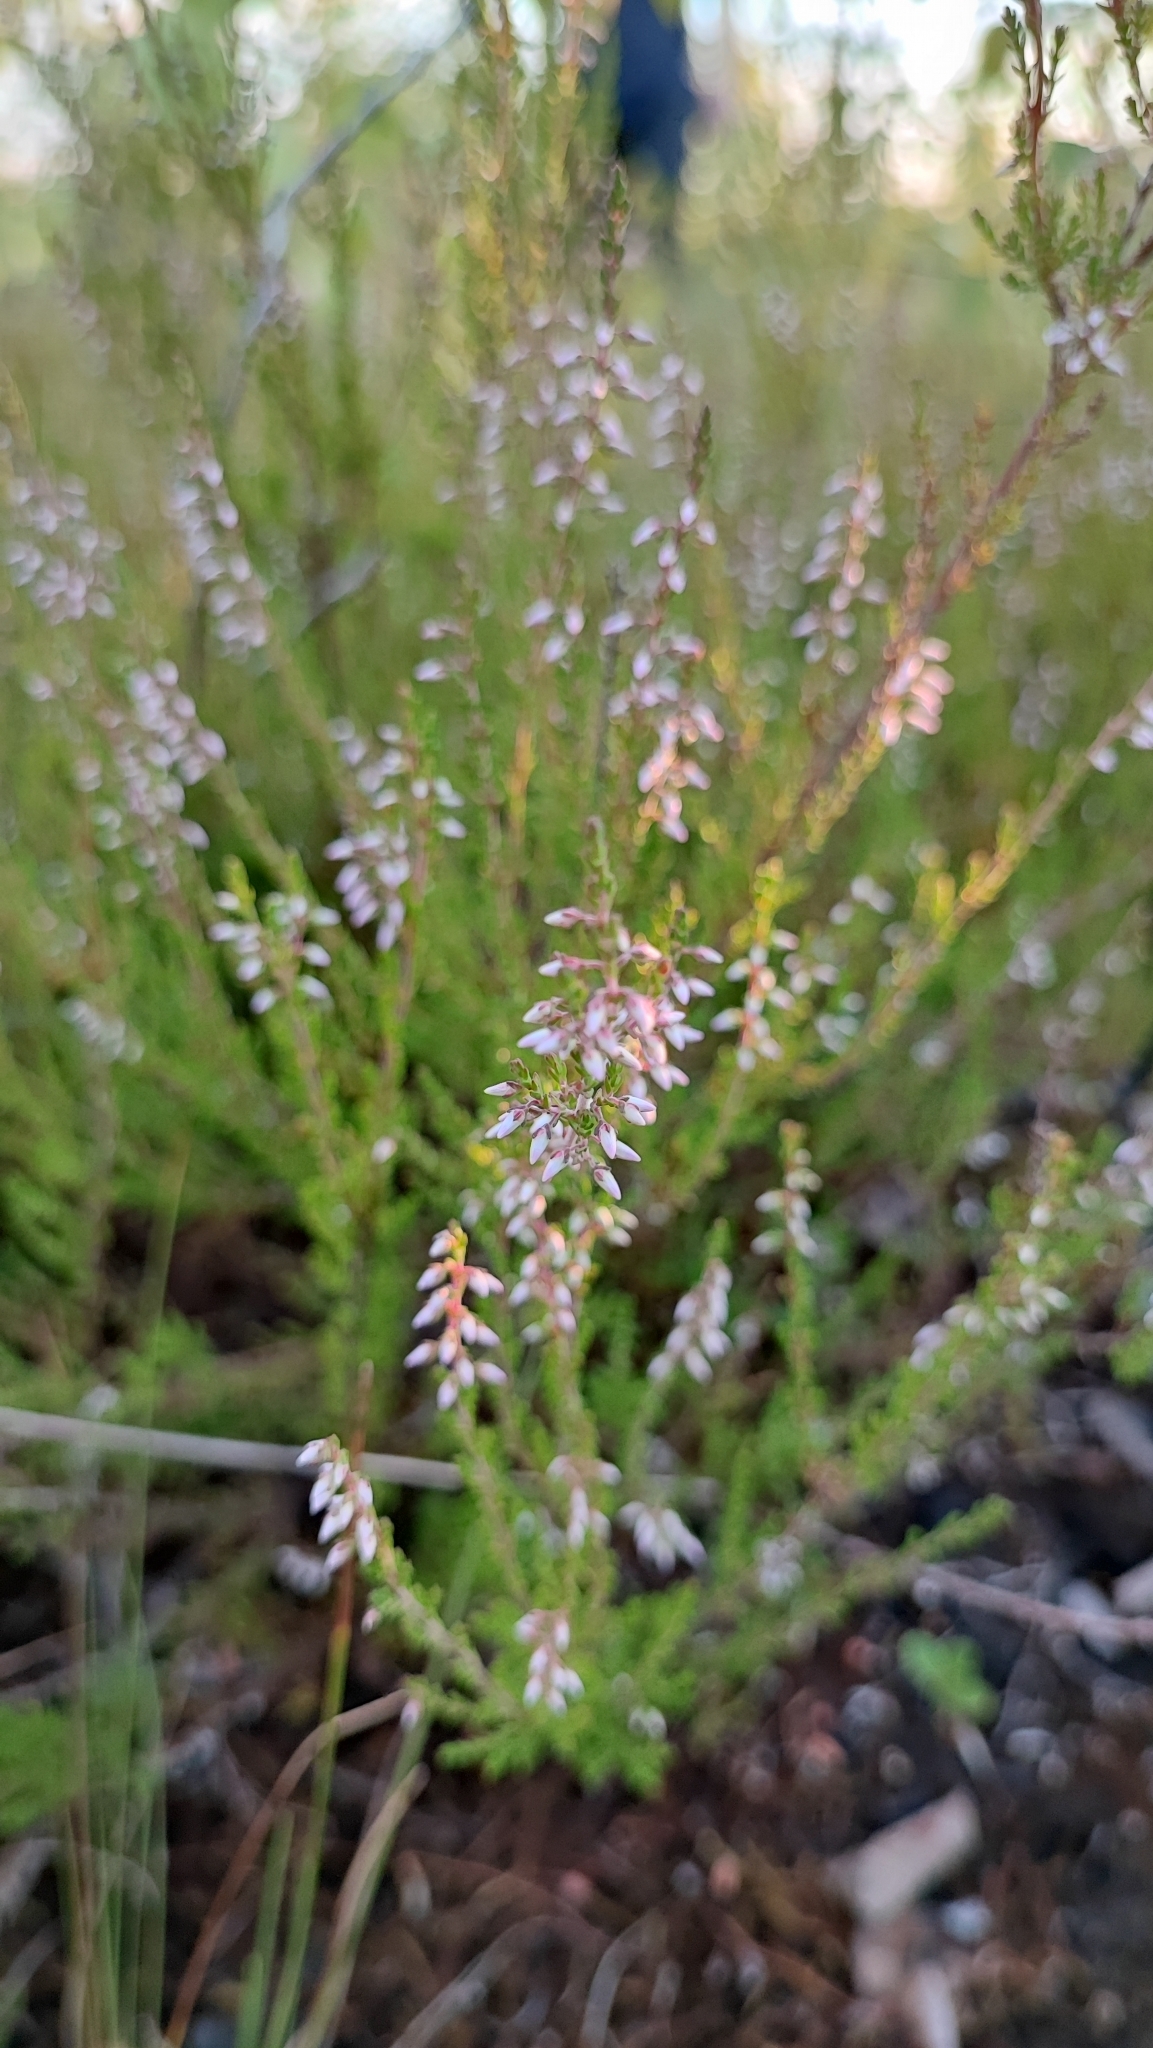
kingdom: Plantae
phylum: Tracheophyta
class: Magnoliopsida
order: Ericales
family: Ericaceae
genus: Calluna
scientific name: Calluna vulgaris
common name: Heather
